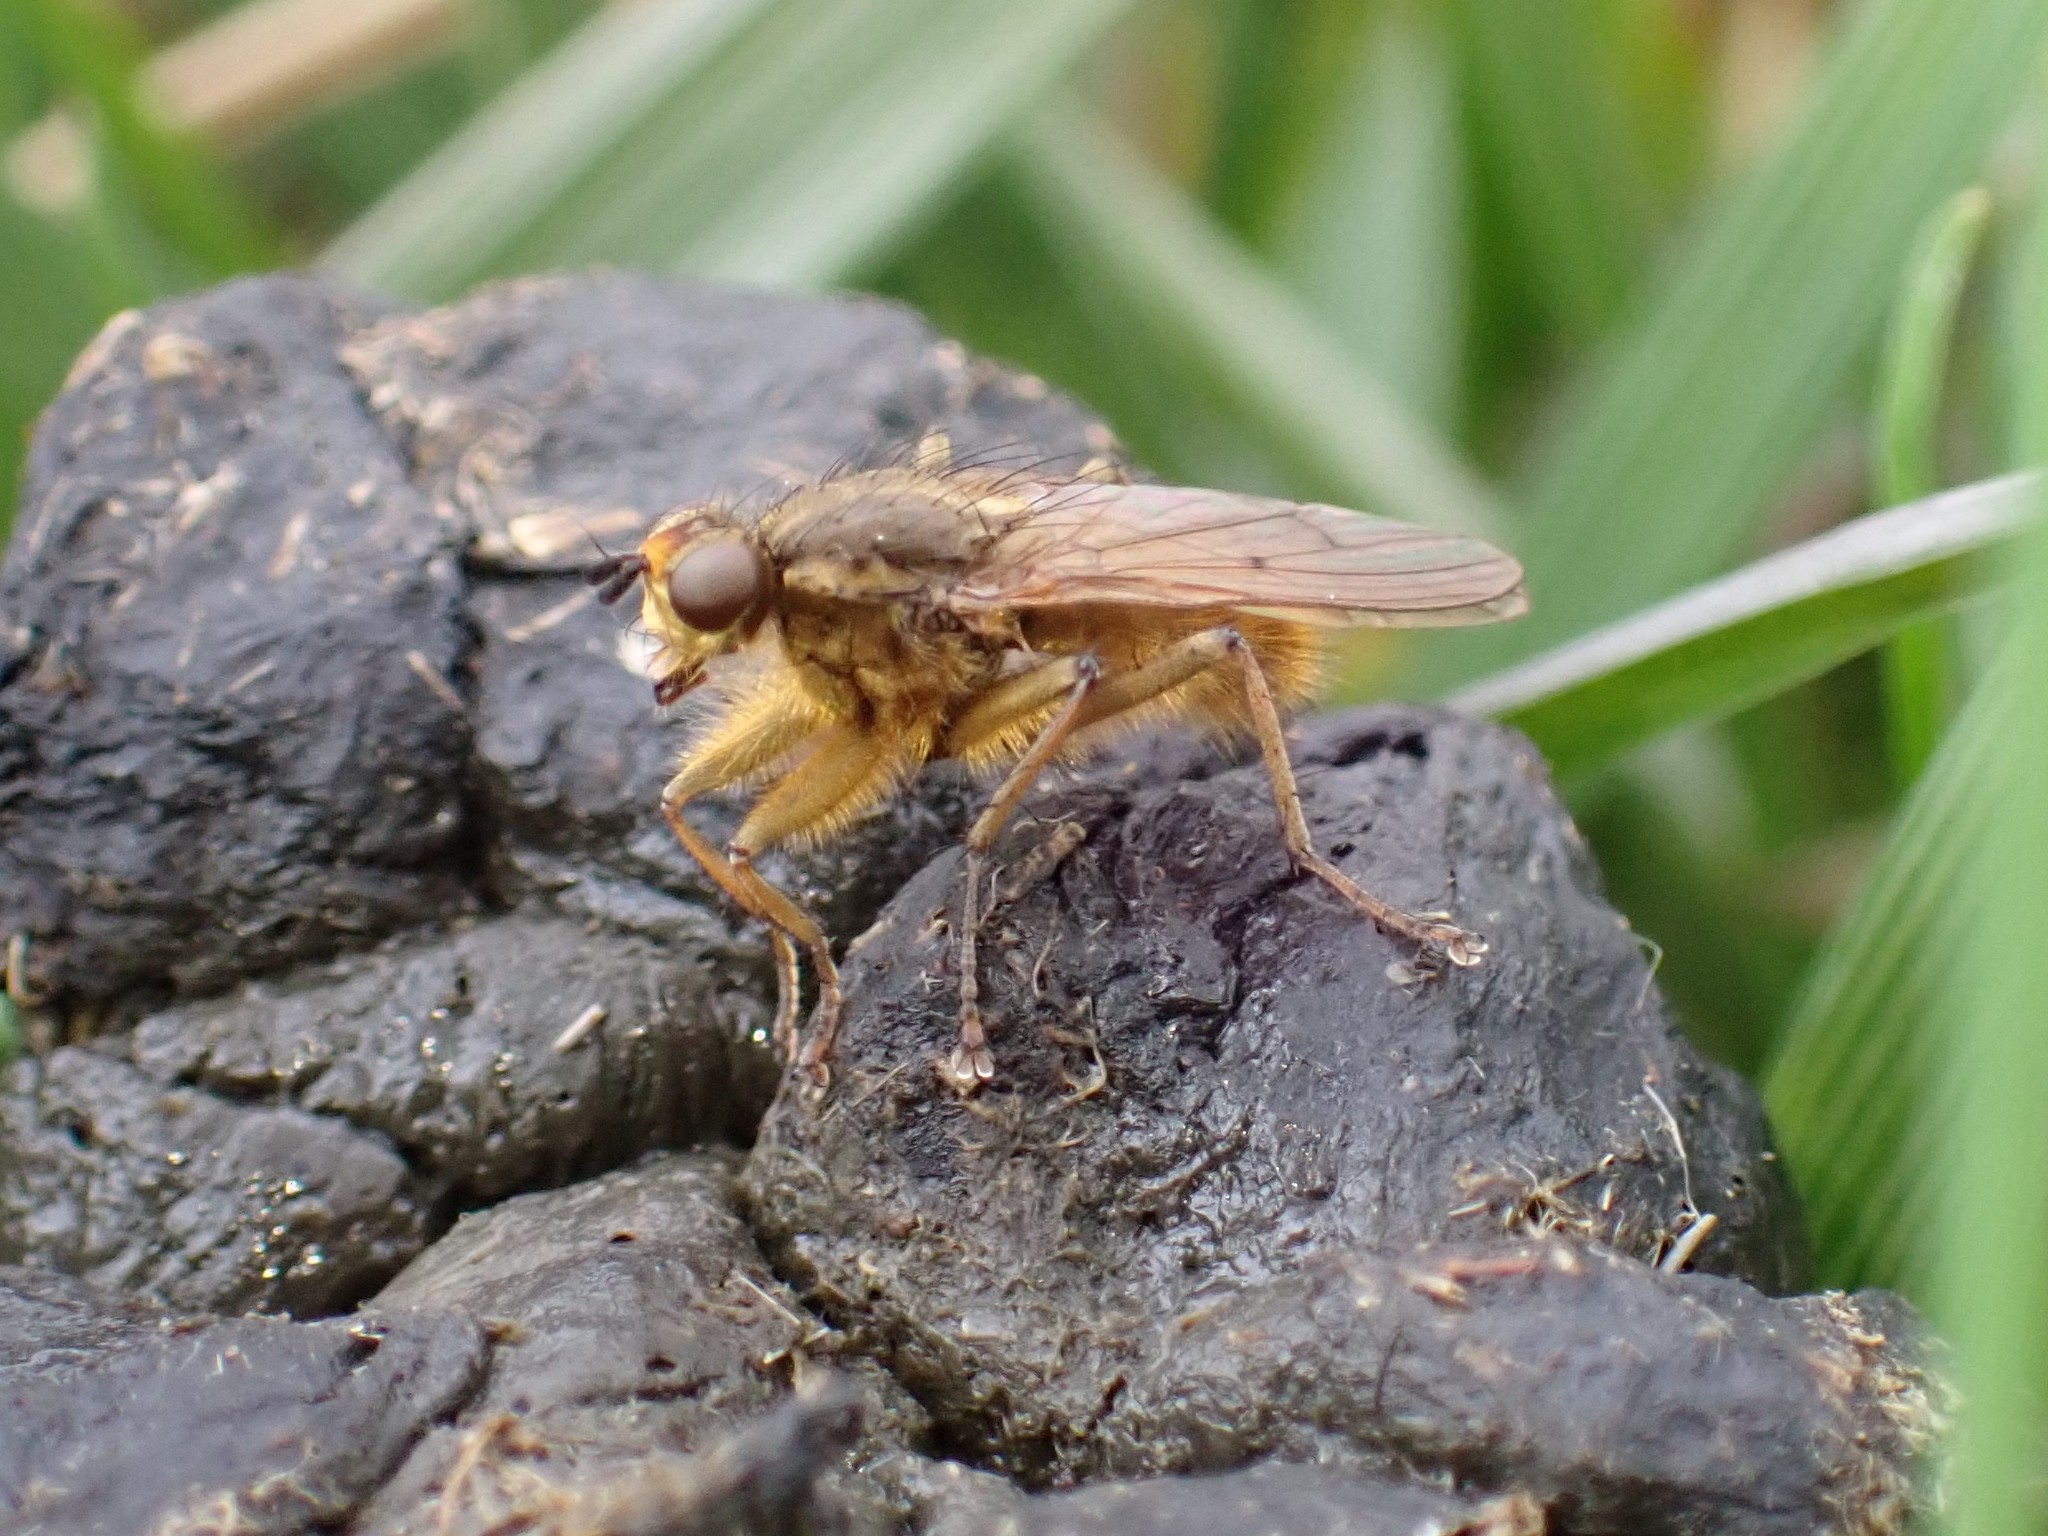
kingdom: Animalia
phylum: Arthropoda
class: Insecta
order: Diptera
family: Scathophagidae
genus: Scathophaga
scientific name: Scathophaga stercoraria
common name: Yellow dung fly
